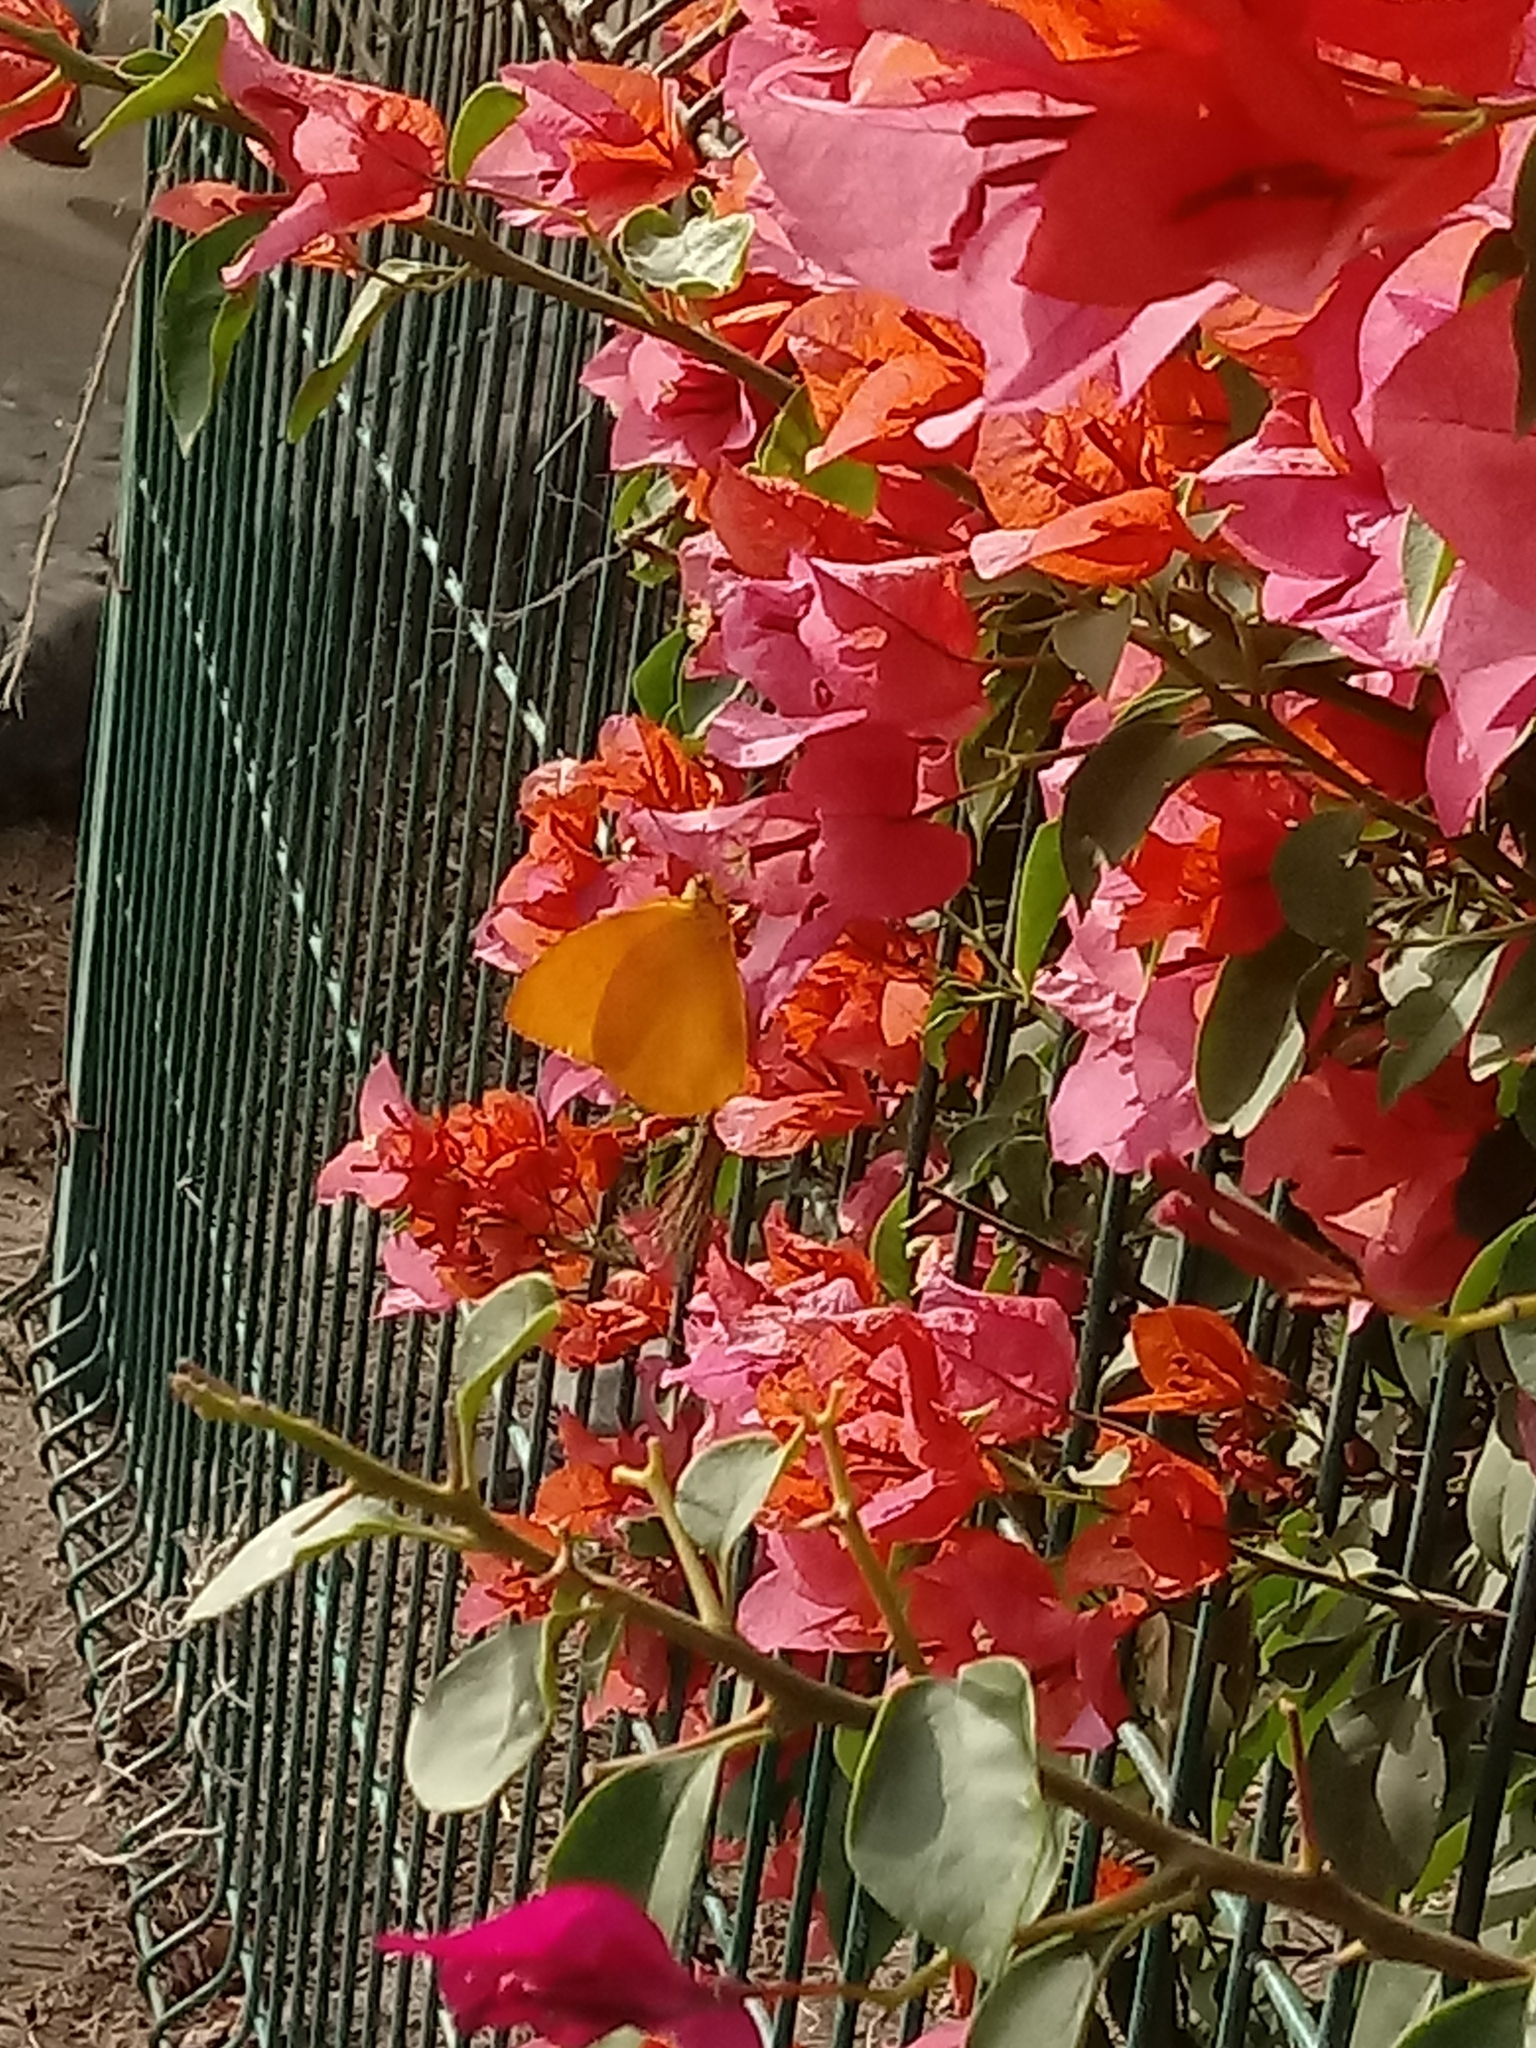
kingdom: Animalia
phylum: Arthropoda
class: Insecta
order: Lepidoptera
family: Pieridae
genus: Phoebis
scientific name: Phoebis agarithe
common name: Large orange sulphur
